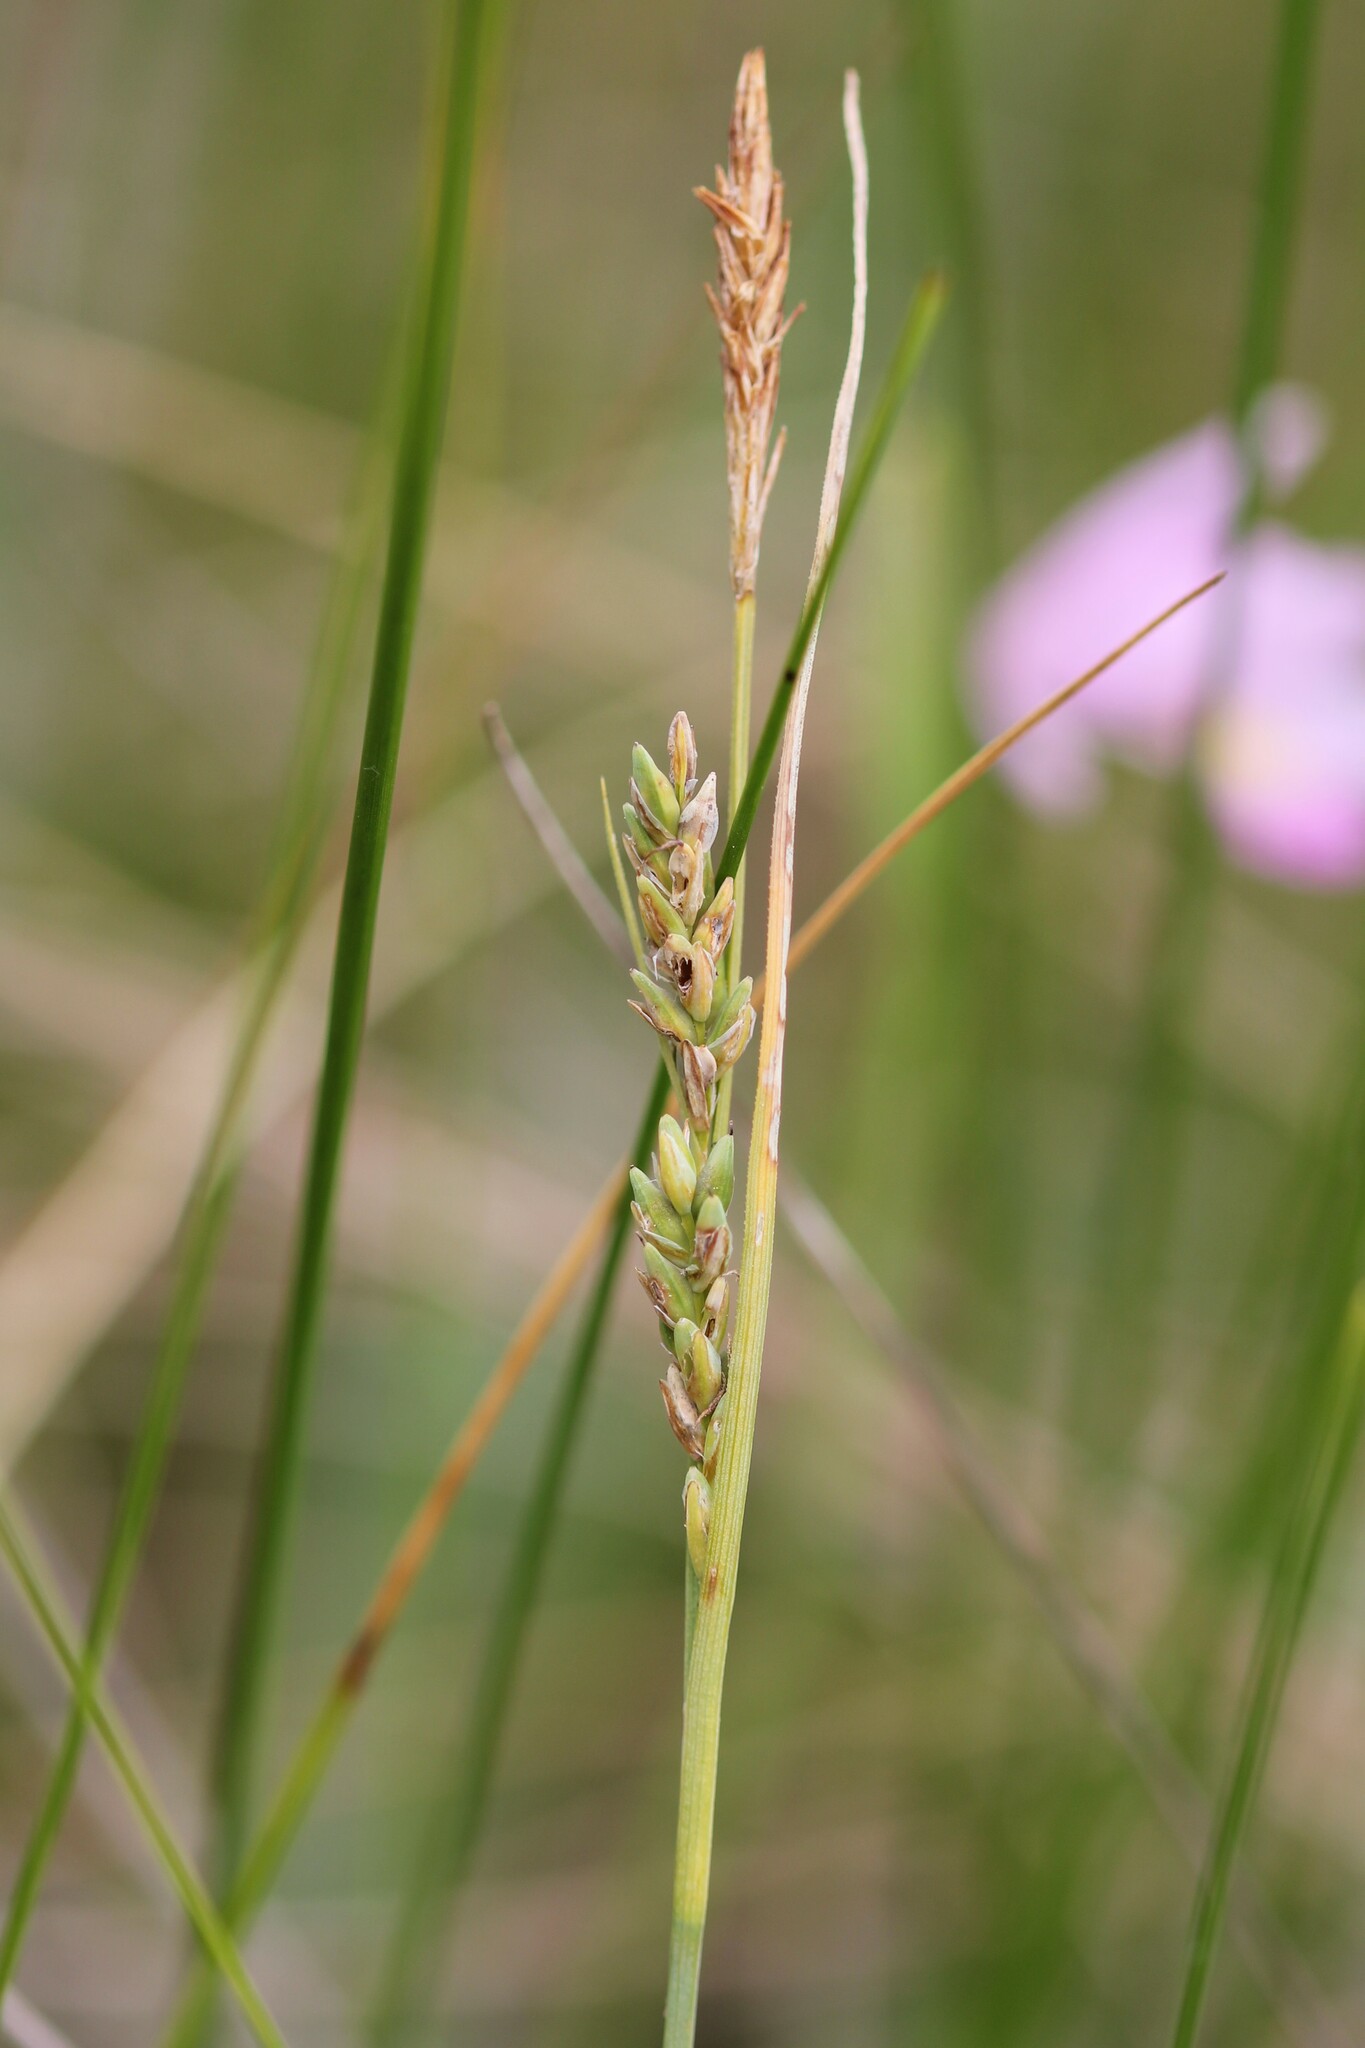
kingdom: Plantae
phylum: Tracheophyta
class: Liliopsida
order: Poales
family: Cyperaceae
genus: Carex
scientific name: Carex livida
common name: Livid sedge
